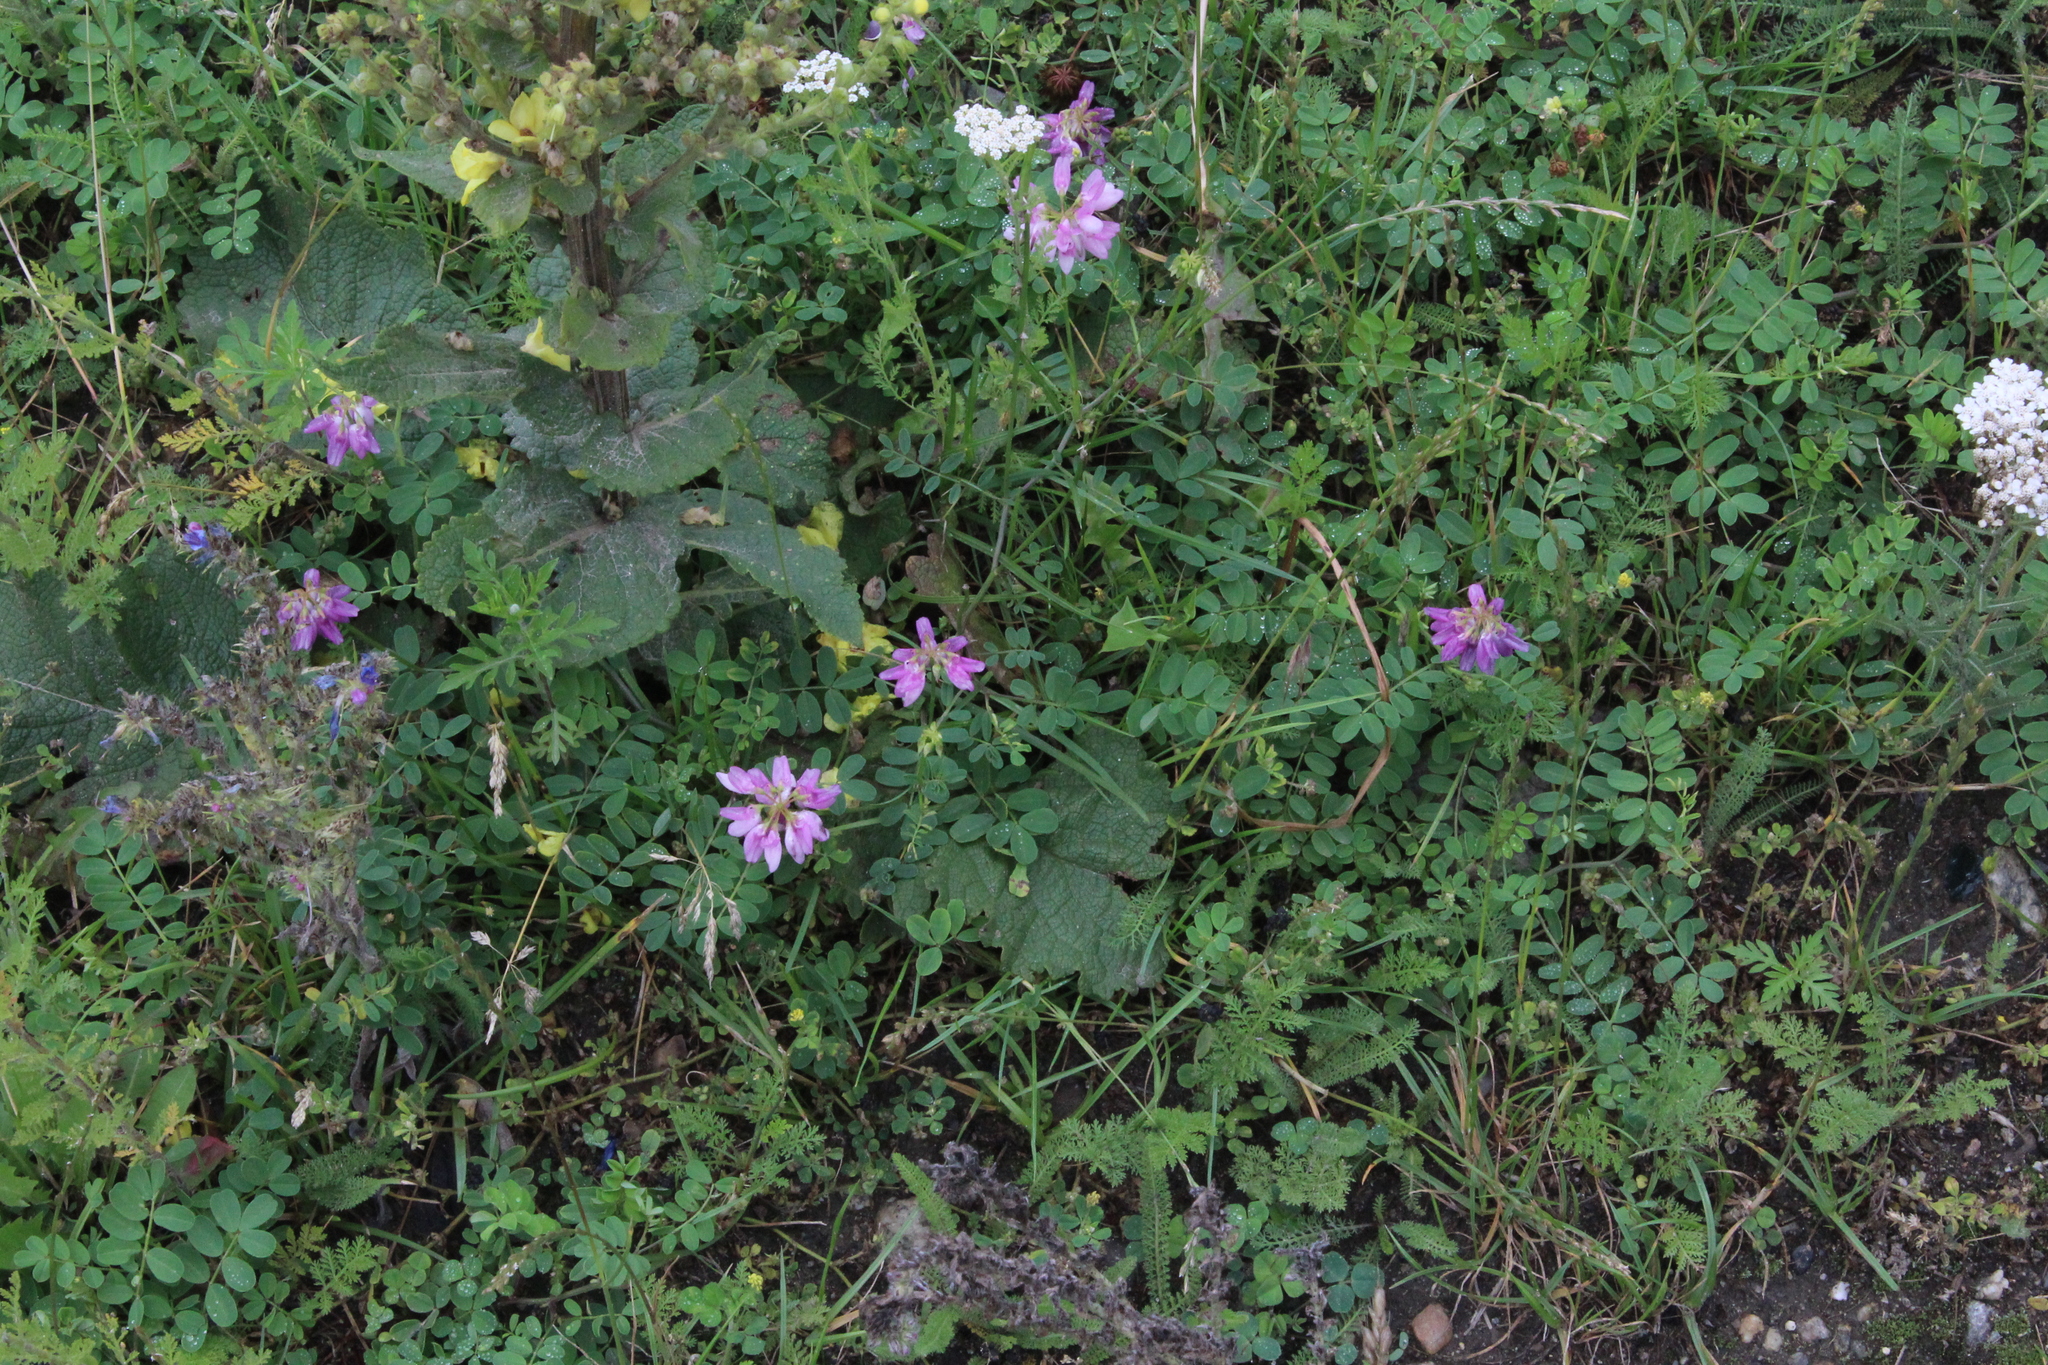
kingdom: Plantae
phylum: Tracheophyta
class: Magnoliopsida
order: Fabales
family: Fabaceae
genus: Coronilla
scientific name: Coronilla varia
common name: Crownvetch
